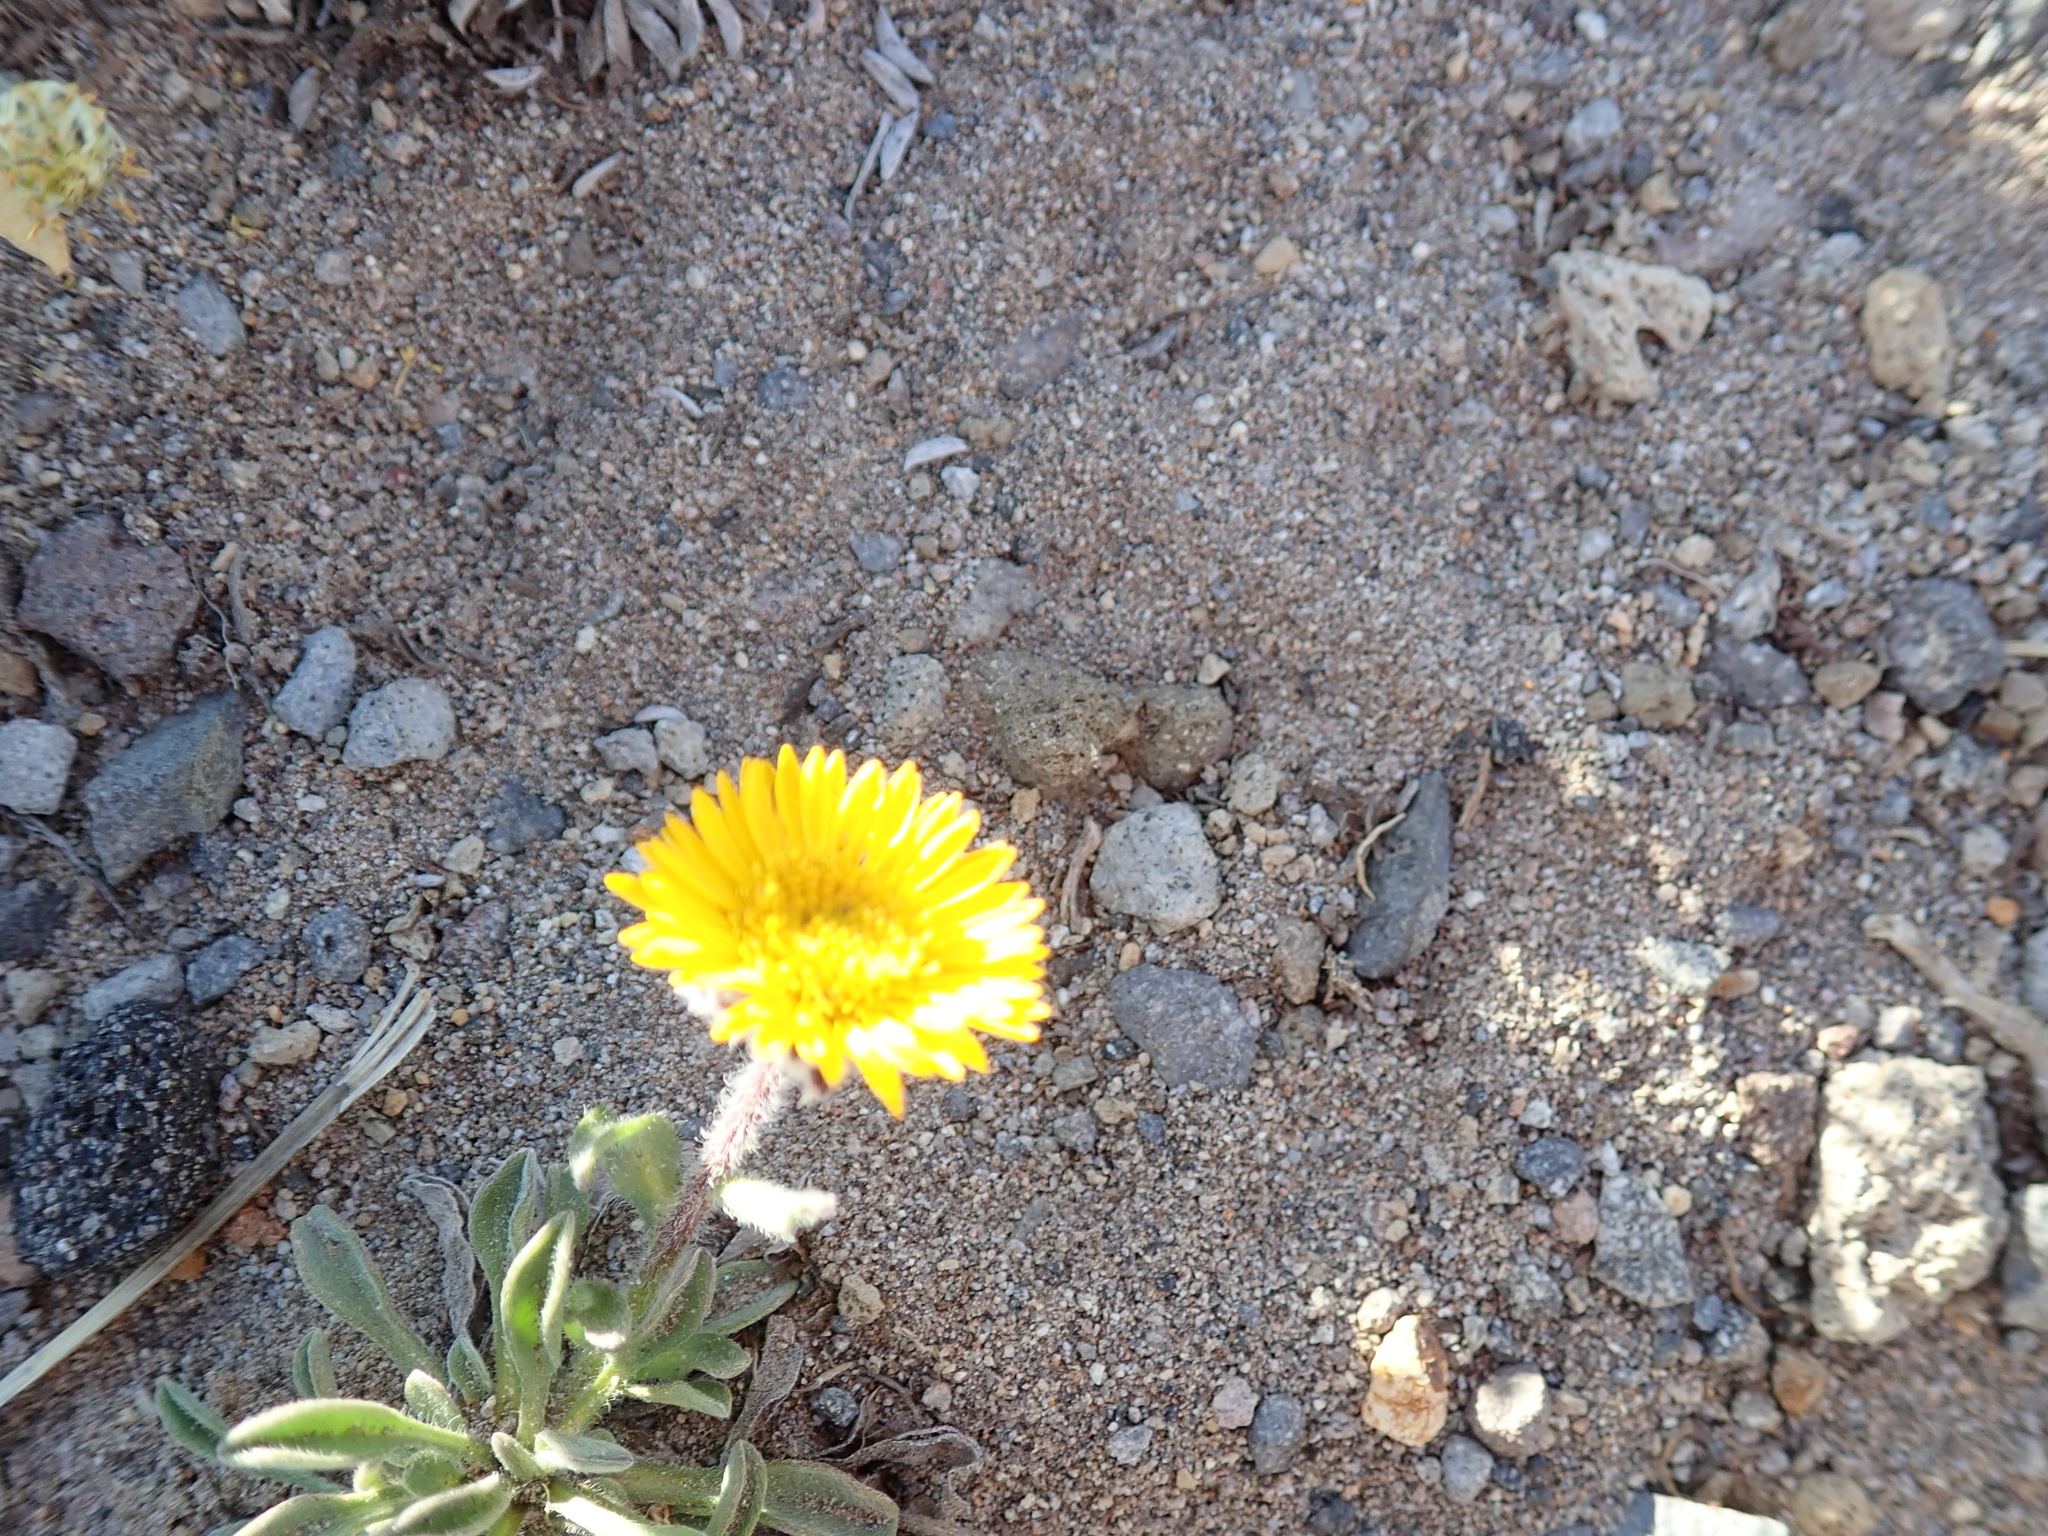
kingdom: Plantae
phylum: Tracheophyta
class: Magnoliopsida
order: Asterales
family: Asteraceae
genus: Erigeron
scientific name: Erigeron aureus
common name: Alpine yellow fleabane
